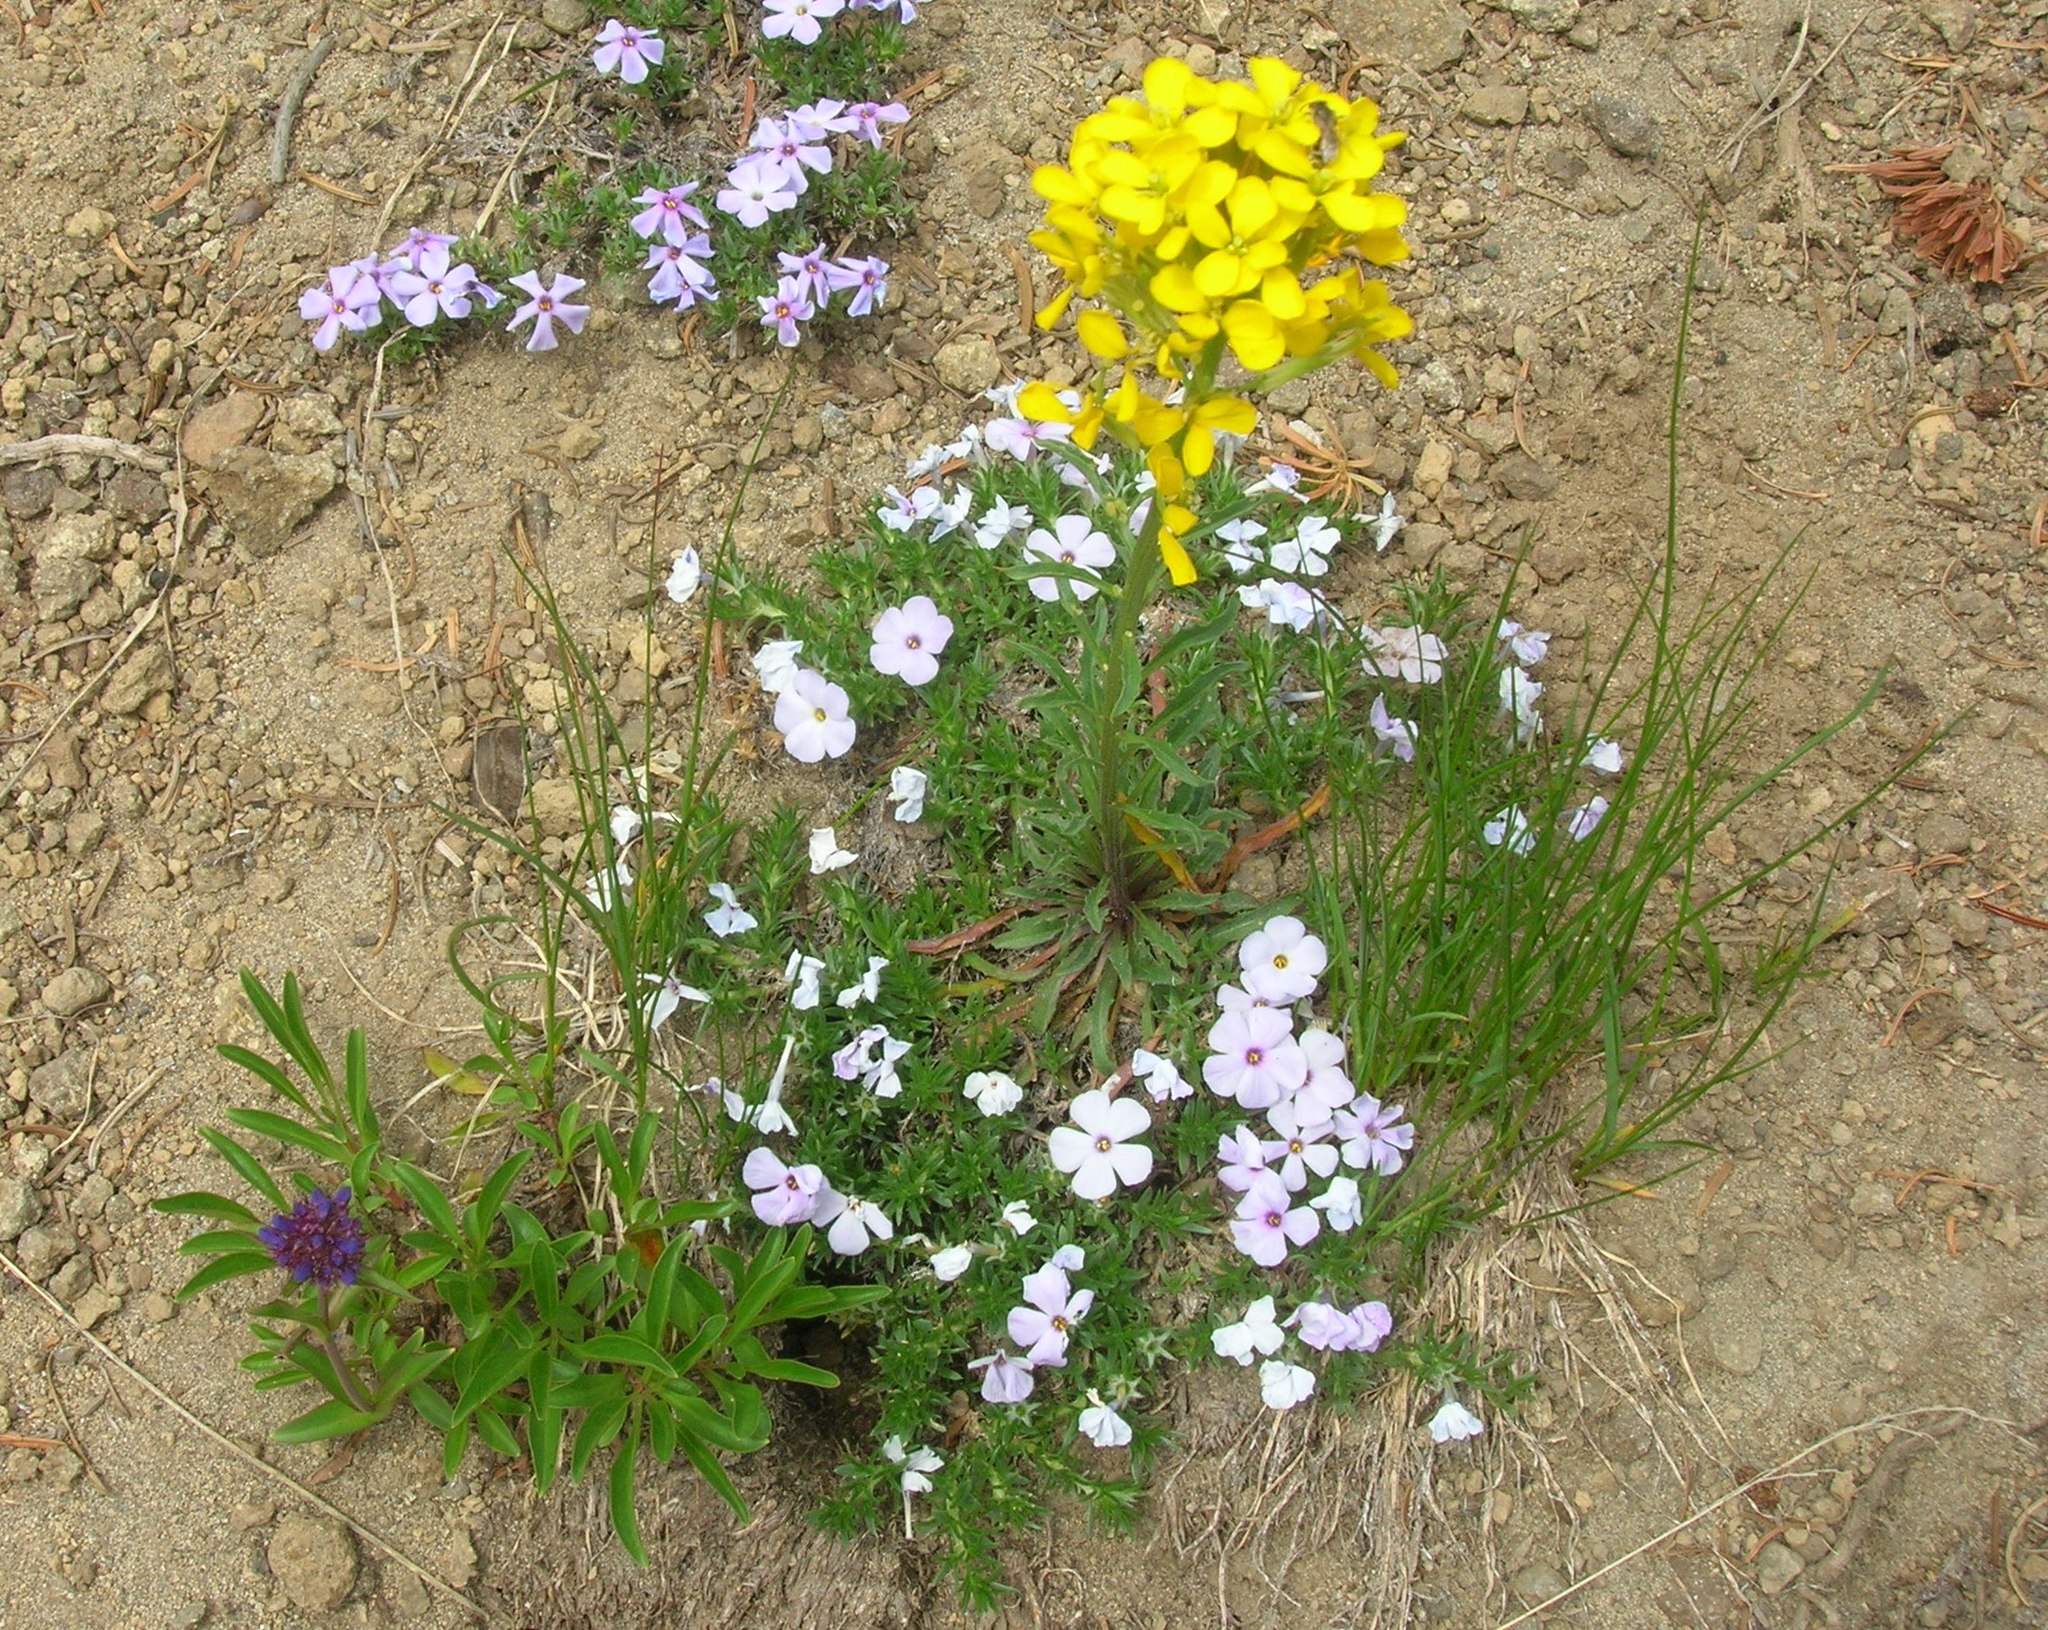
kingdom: Plantae
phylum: Tracheophyta
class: Magnoliopsida
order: Ericales
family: Polemoniaceae
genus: Phlox
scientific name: Phlox diffusa
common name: Mat phlox
